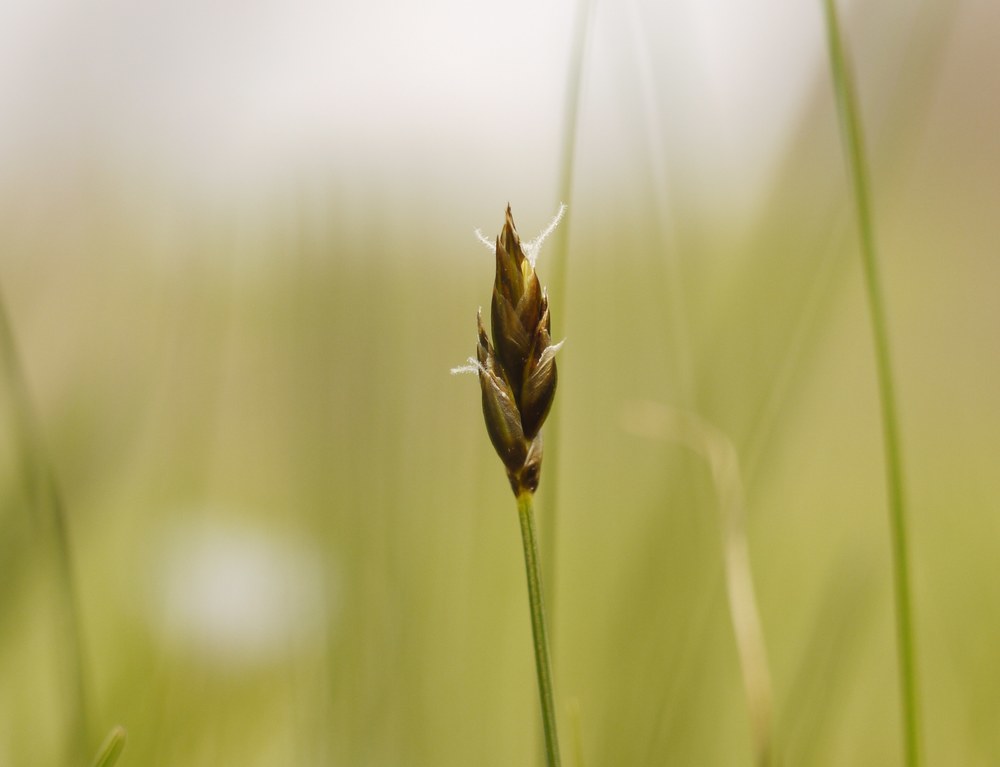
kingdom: Plantae
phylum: Tracheophyta
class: Liliopsida
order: Poales
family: Cyperaceae
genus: Carex
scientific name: Carex stenophylla
